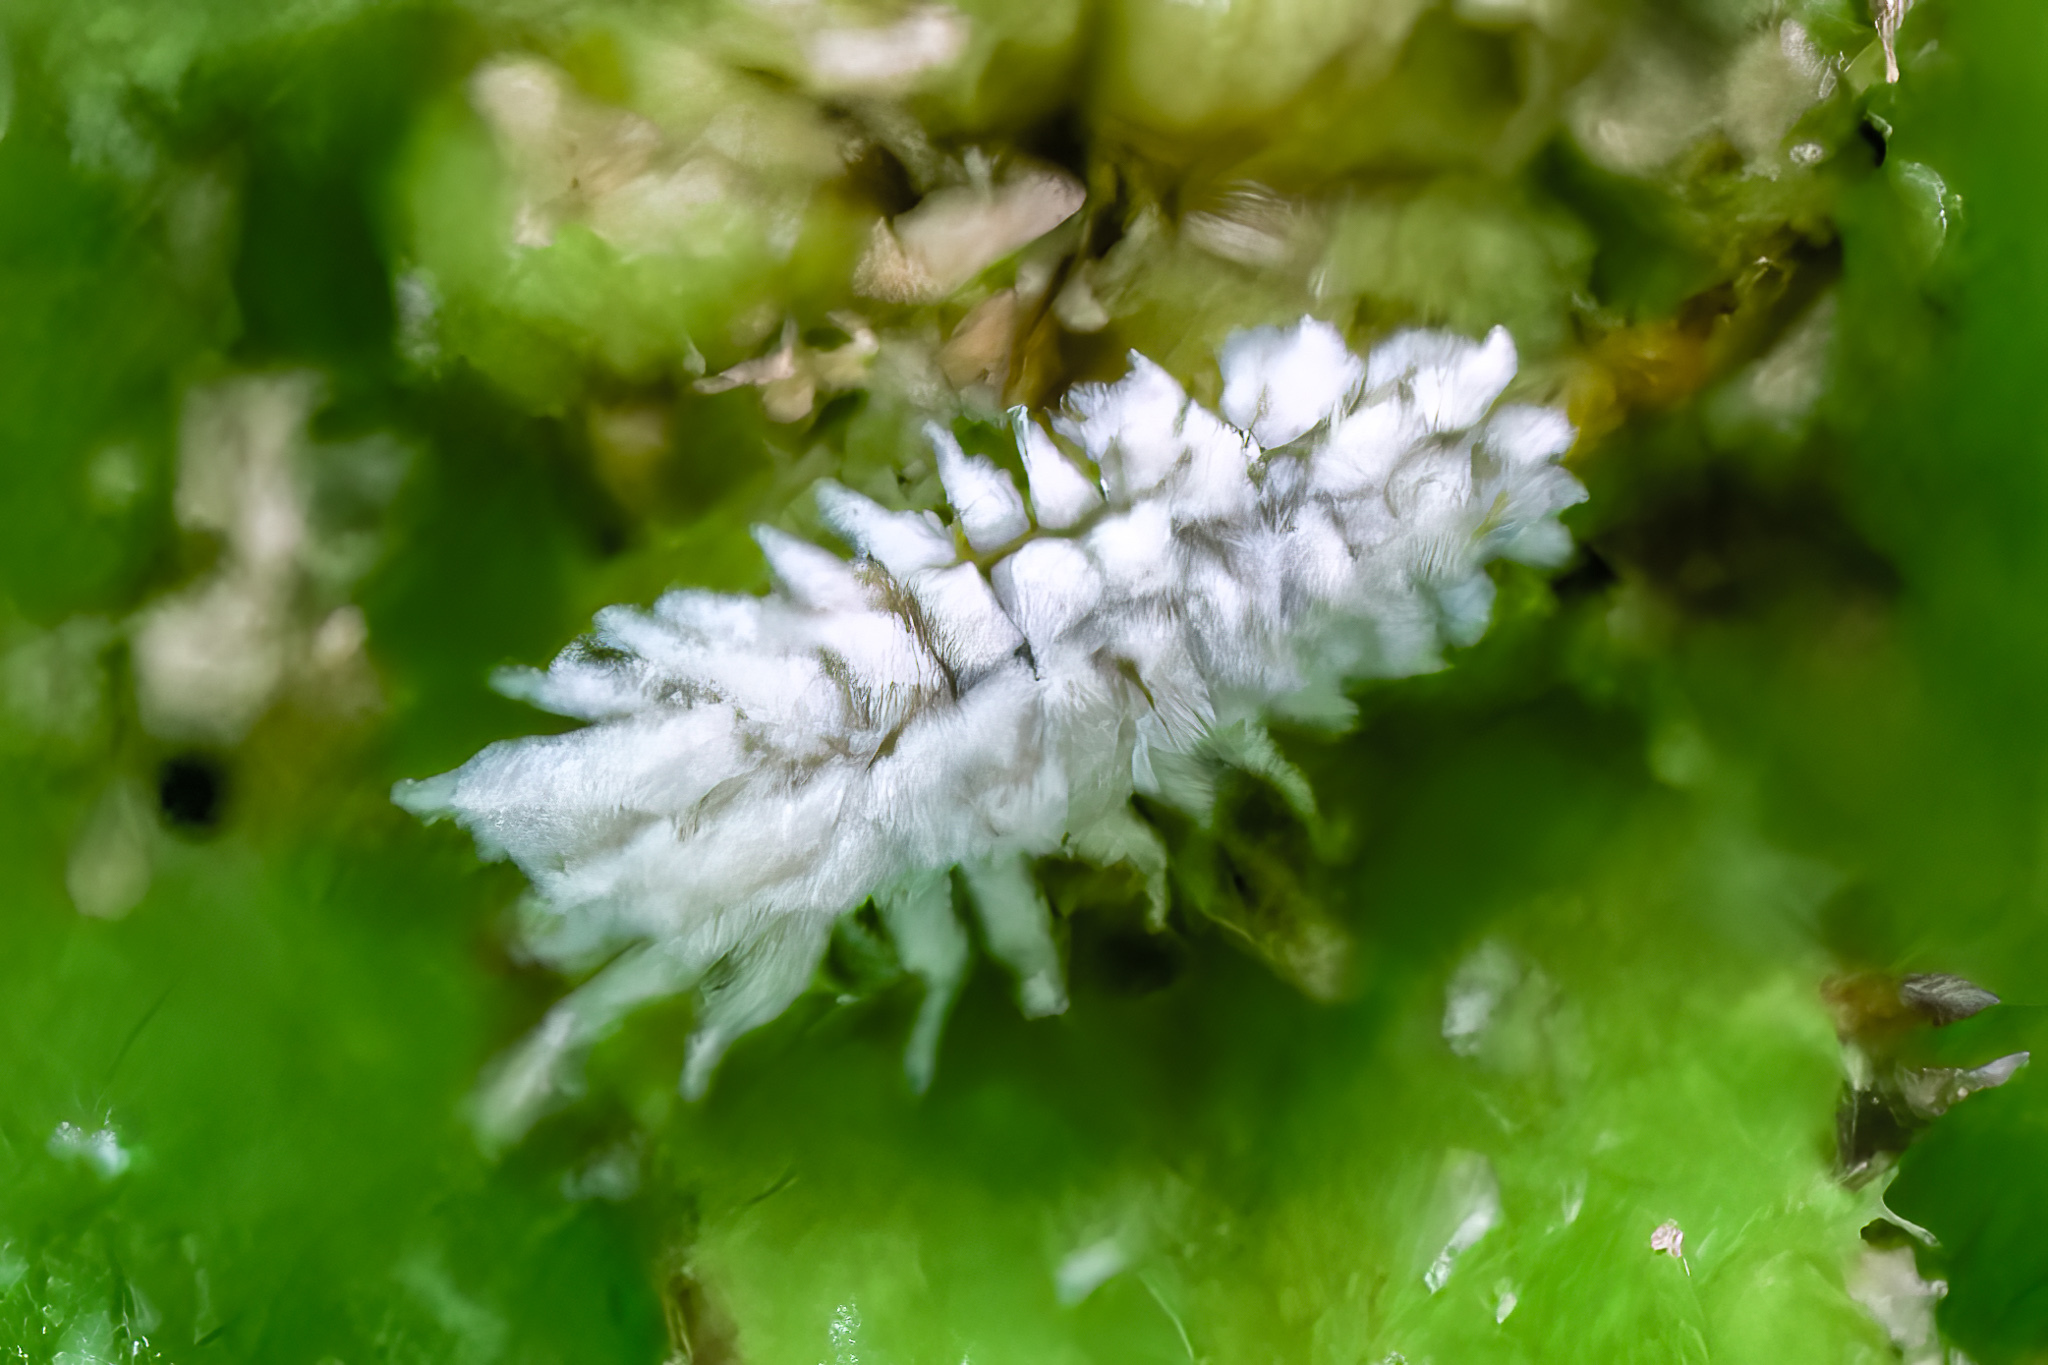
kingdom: Animalia
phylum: Arthropoda
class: Insecta
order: Coleoptera
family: Coccinellidae
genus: Cryptolaemus
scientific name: Cryptolaemus montrouzieri
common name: Mealybug destroyer
